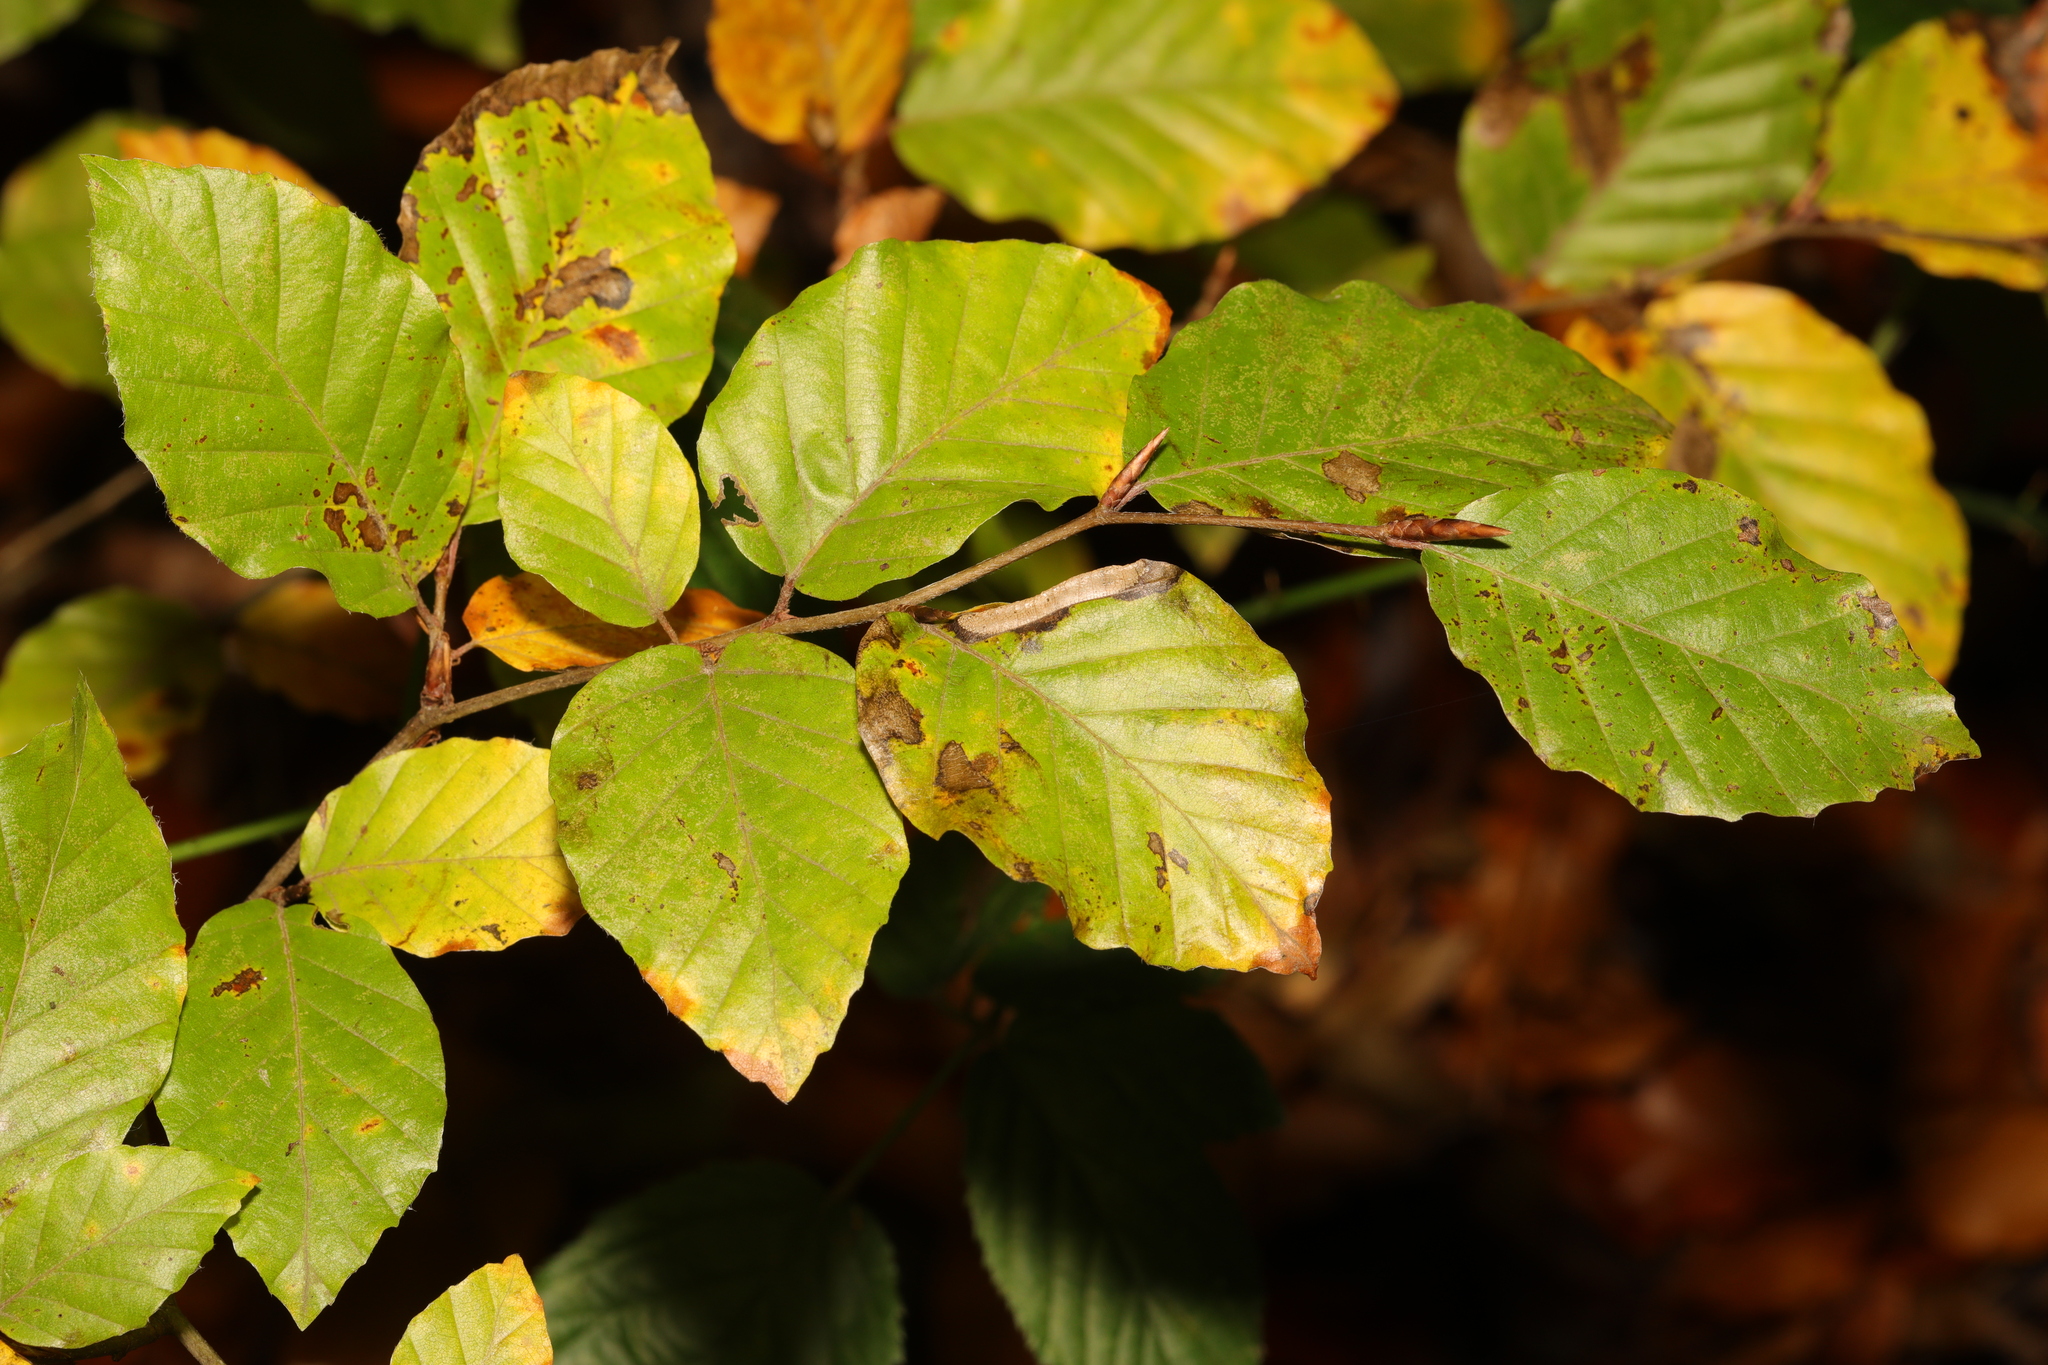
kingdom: Plantae
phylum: Tracheophyta
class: Magnoliopsida
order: Fagales
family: Fagaceae
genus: Fagus
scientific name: Fagus sylvatica
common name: Beech
